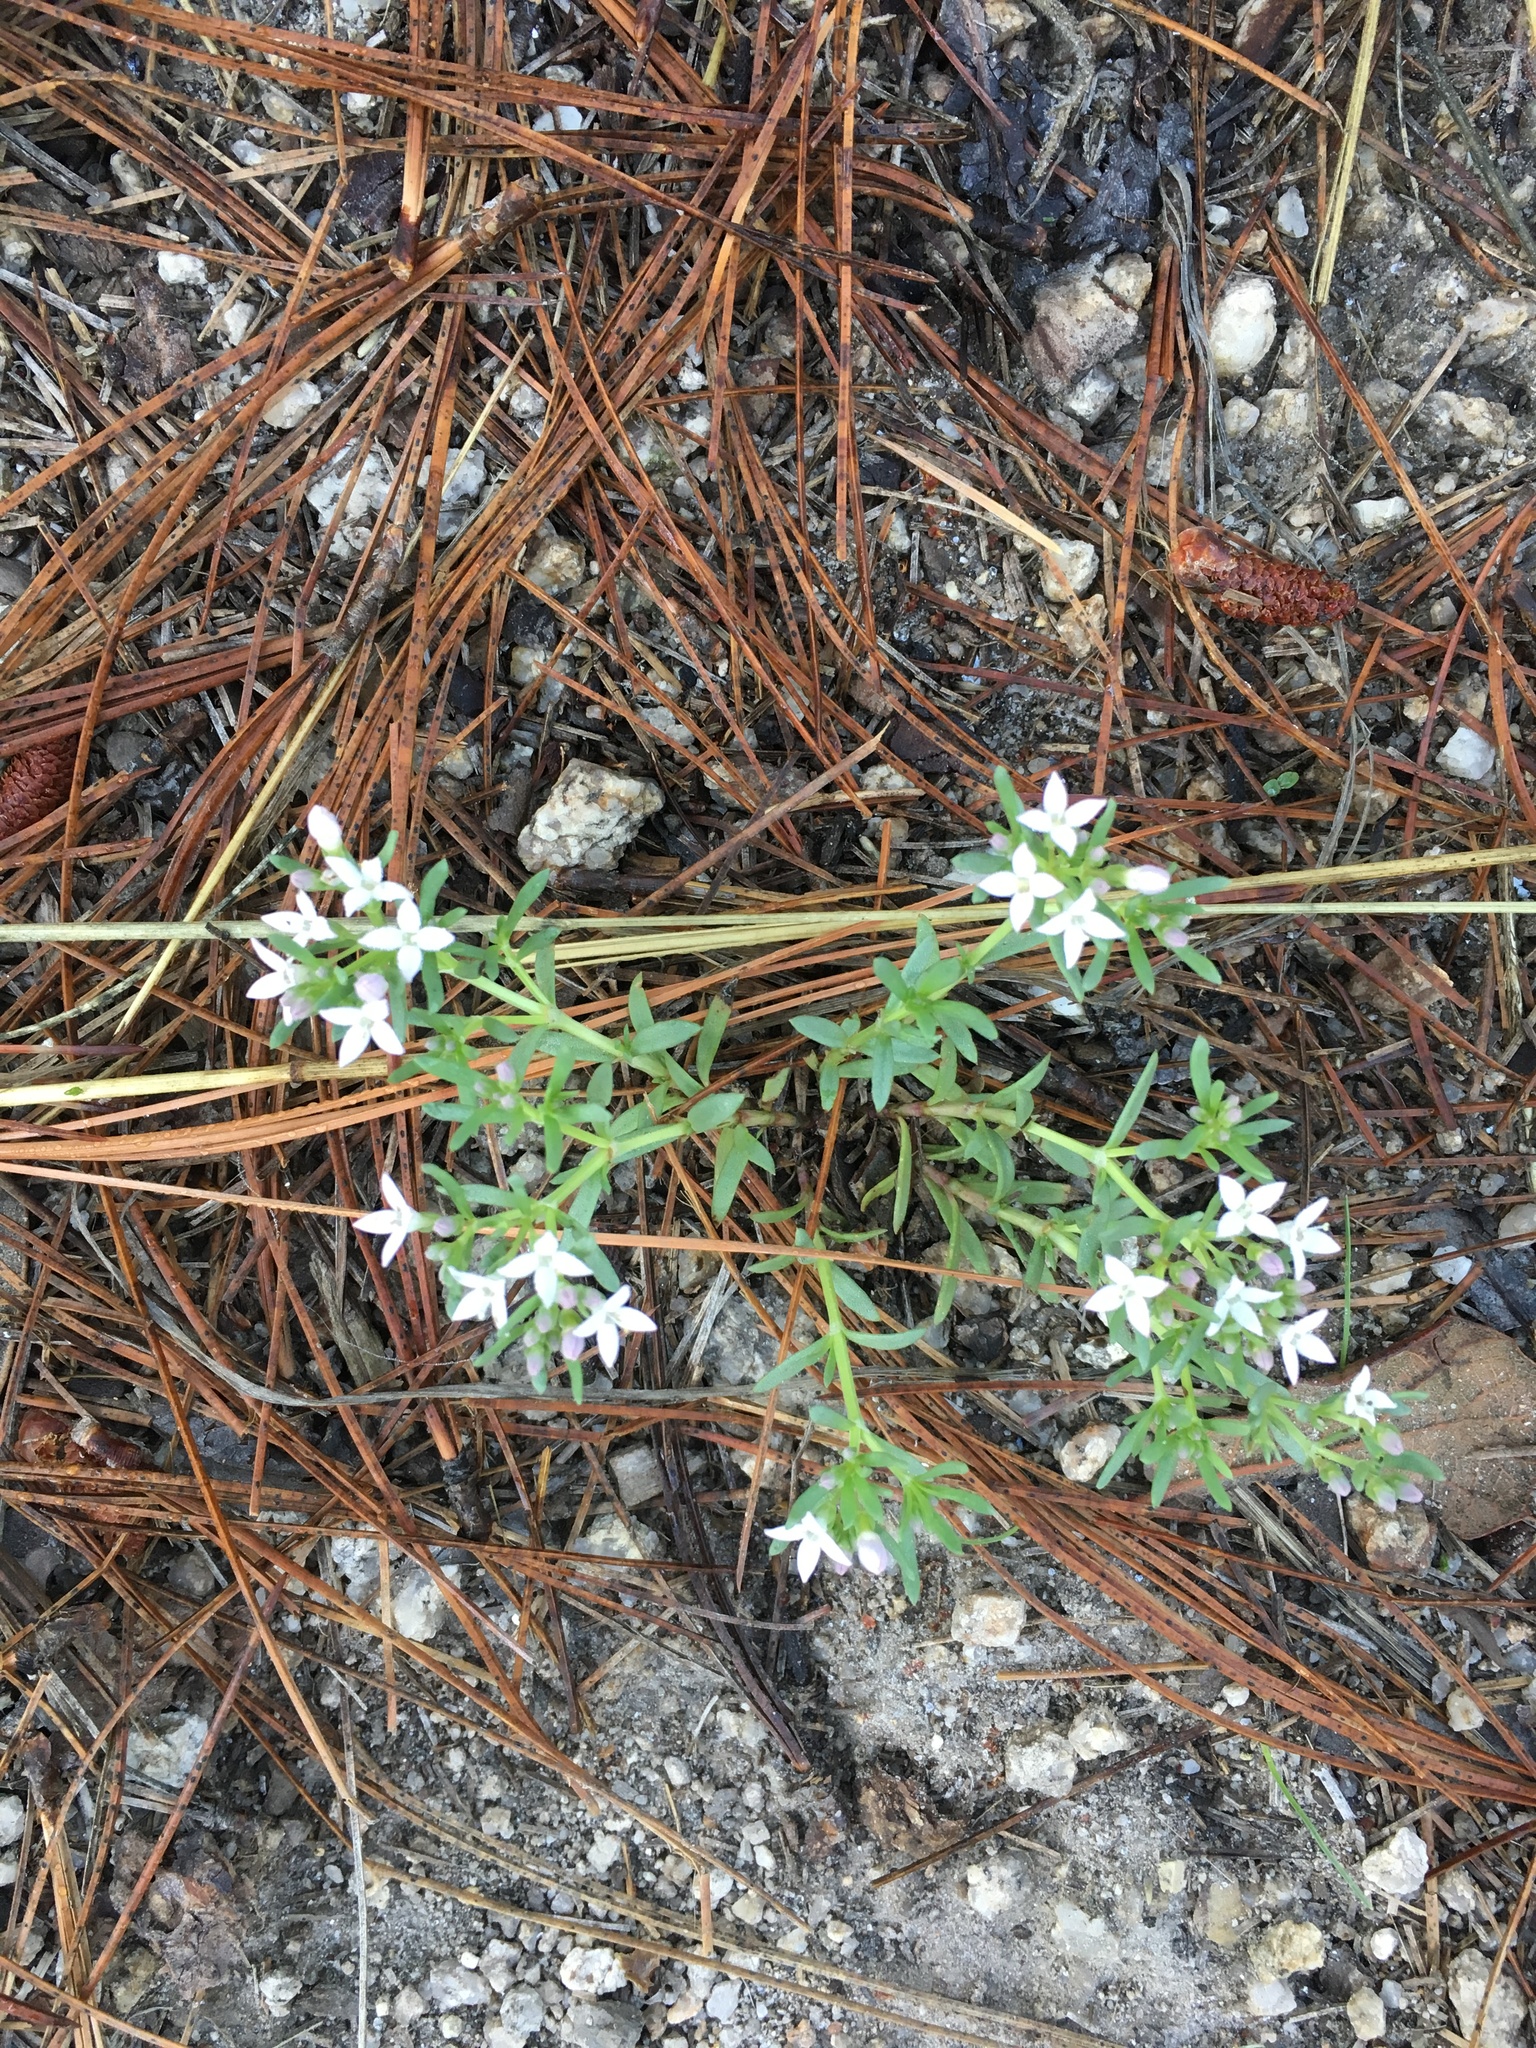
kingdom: Plantae
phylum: Tracheophyta
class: Magnoliopsida
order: Gentianales
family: Rubiaceae
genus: Houstonia
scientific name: Houstonia wrightii
